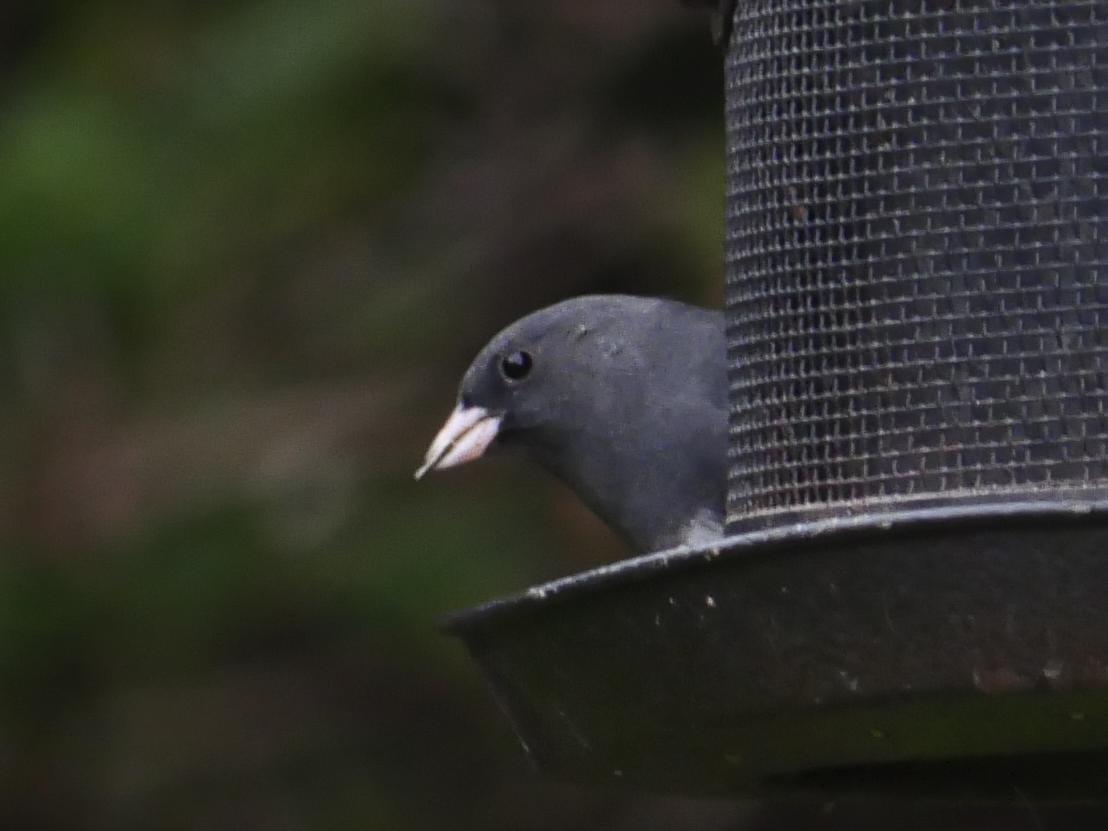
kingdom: Animalia
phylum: Chordata
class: Aves
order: Passeriformes
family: Passerellidae
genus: Junco
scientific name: Junco hyemalis
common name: Dark-eyed junco
